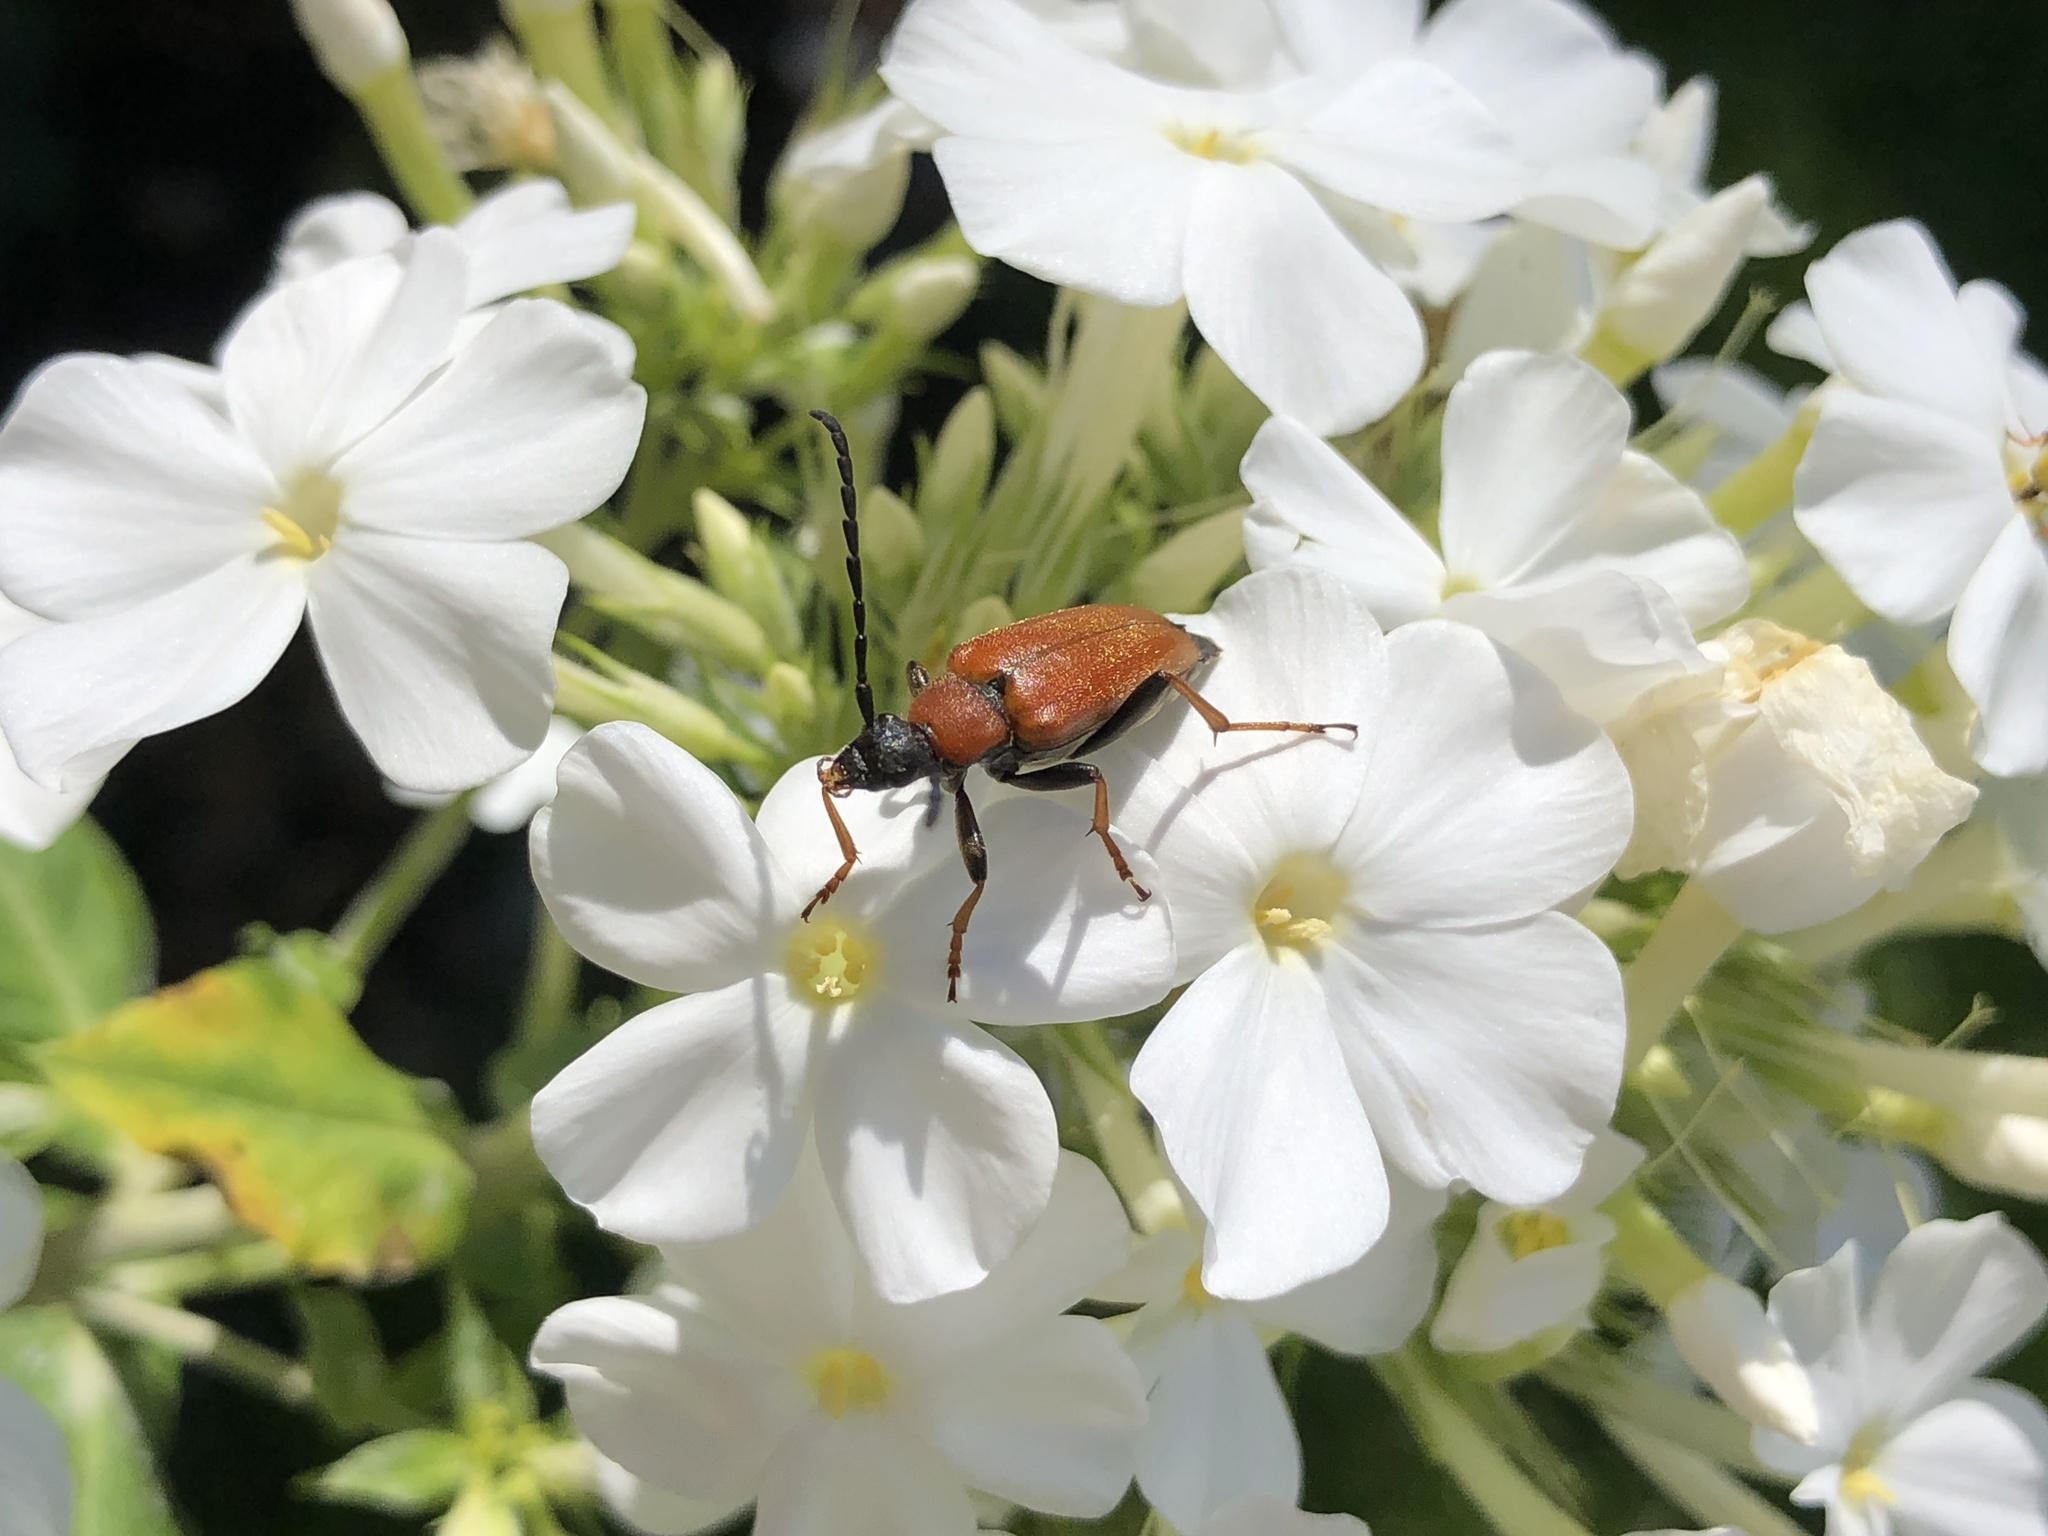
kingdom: Animalia
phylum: Arthropoda
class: Insecta
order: Coleoptera
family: Cerambycidae
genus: Stictoleptura
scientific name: Stictoleptura rubra
